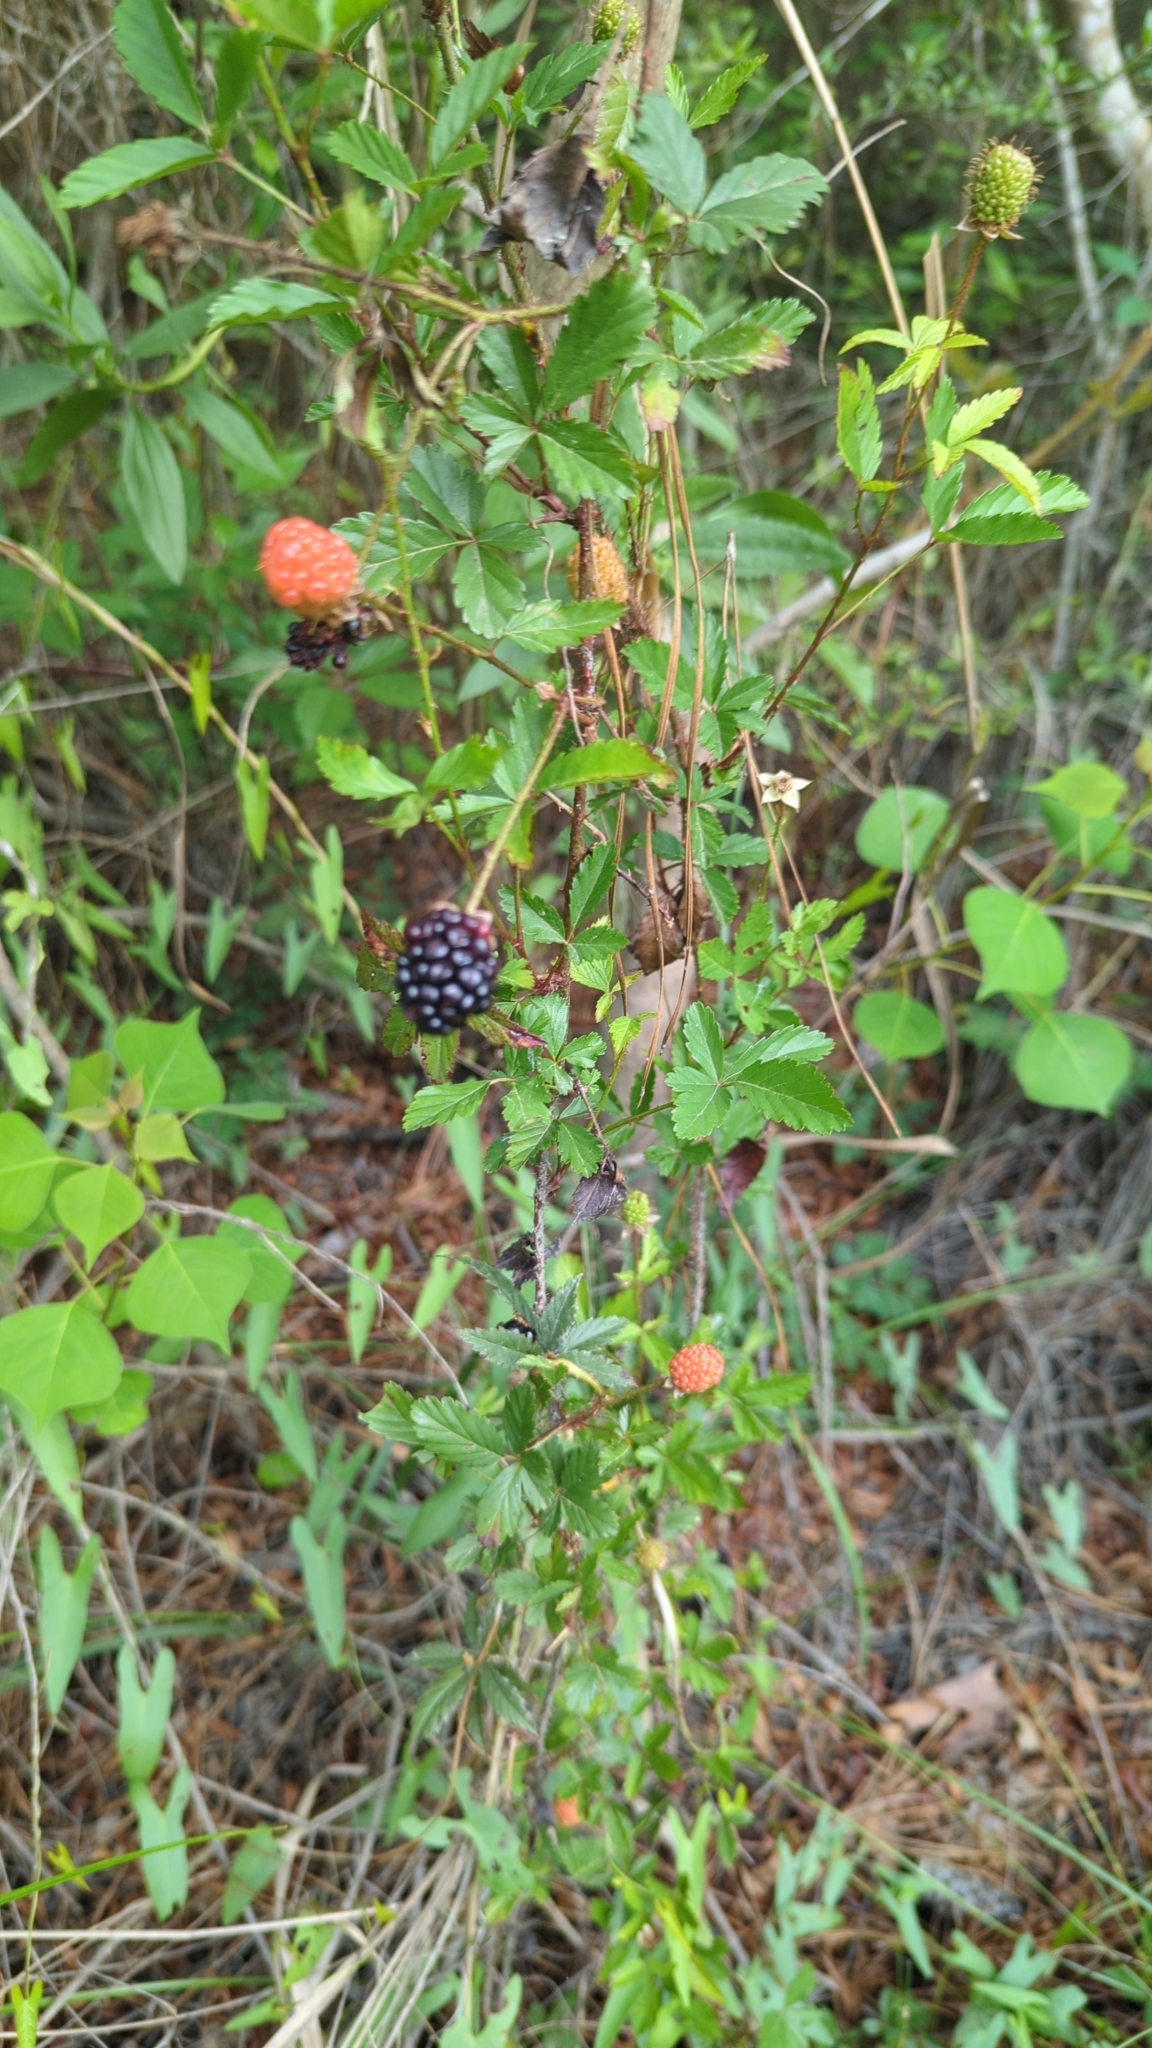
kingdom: Plantae
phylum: Tracheophyta
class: Magnoliopsida
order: Rosales
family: Rosaceae
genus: Rubus
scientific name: Rubus trivialis
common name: Southern dewberry
